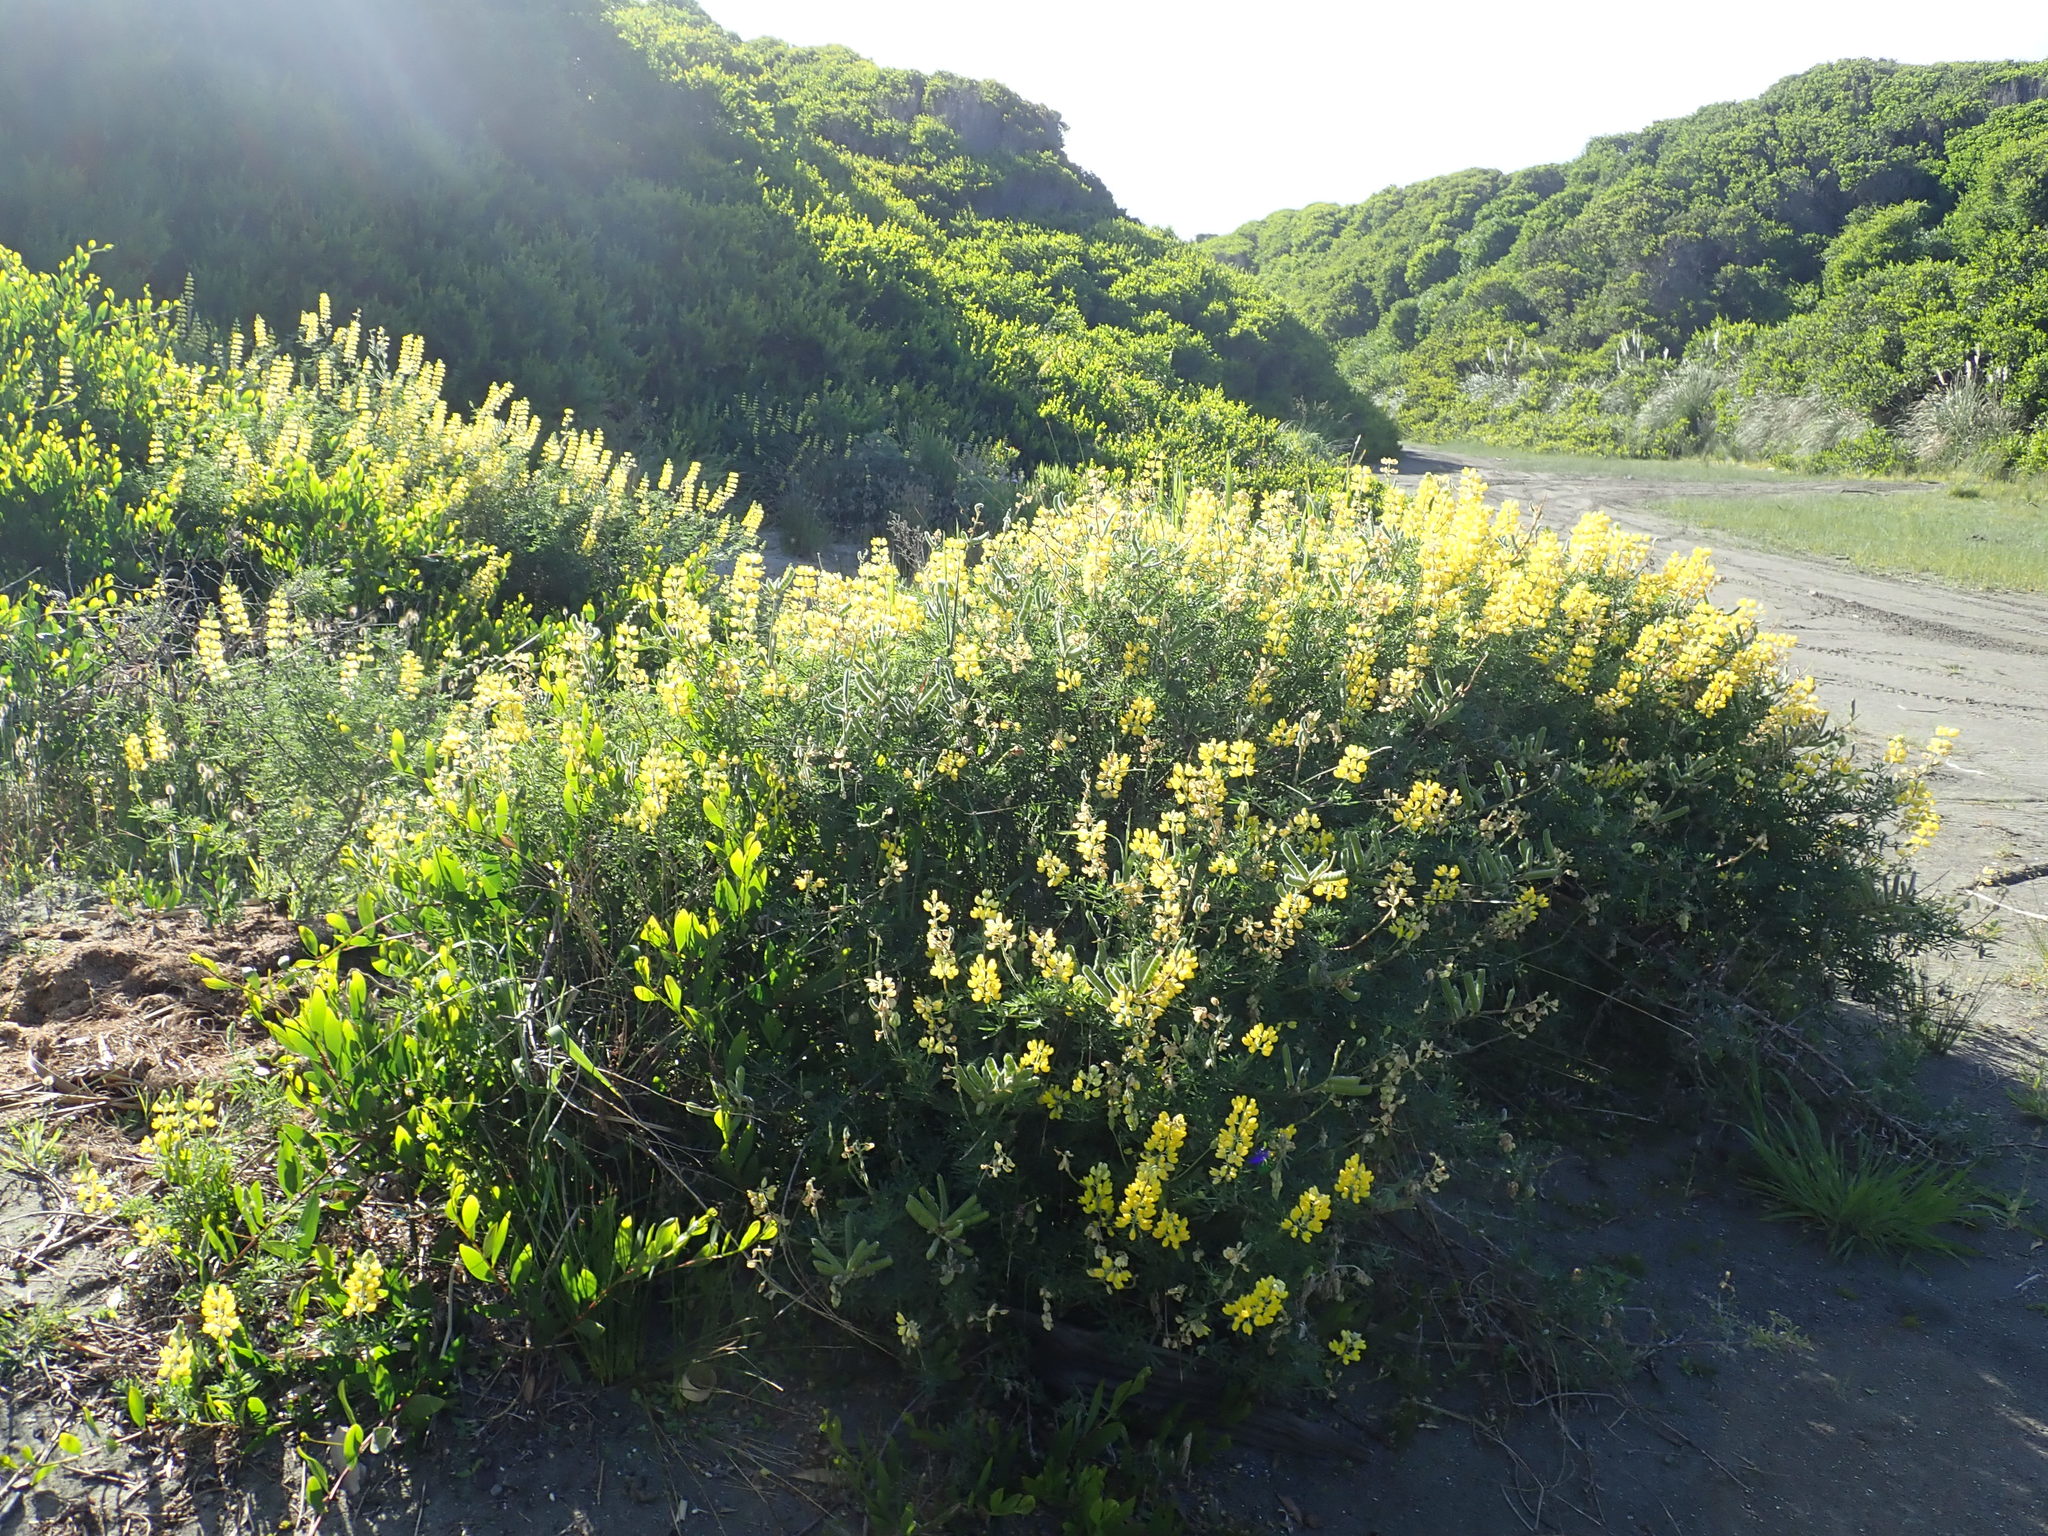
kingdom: Plantae
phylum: Tracheophyta
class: Magnoliopsida
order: Fabales
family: Fabaceae
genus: Lupinus
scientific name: Lupinus arboreus
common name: Yellow bush lupine
